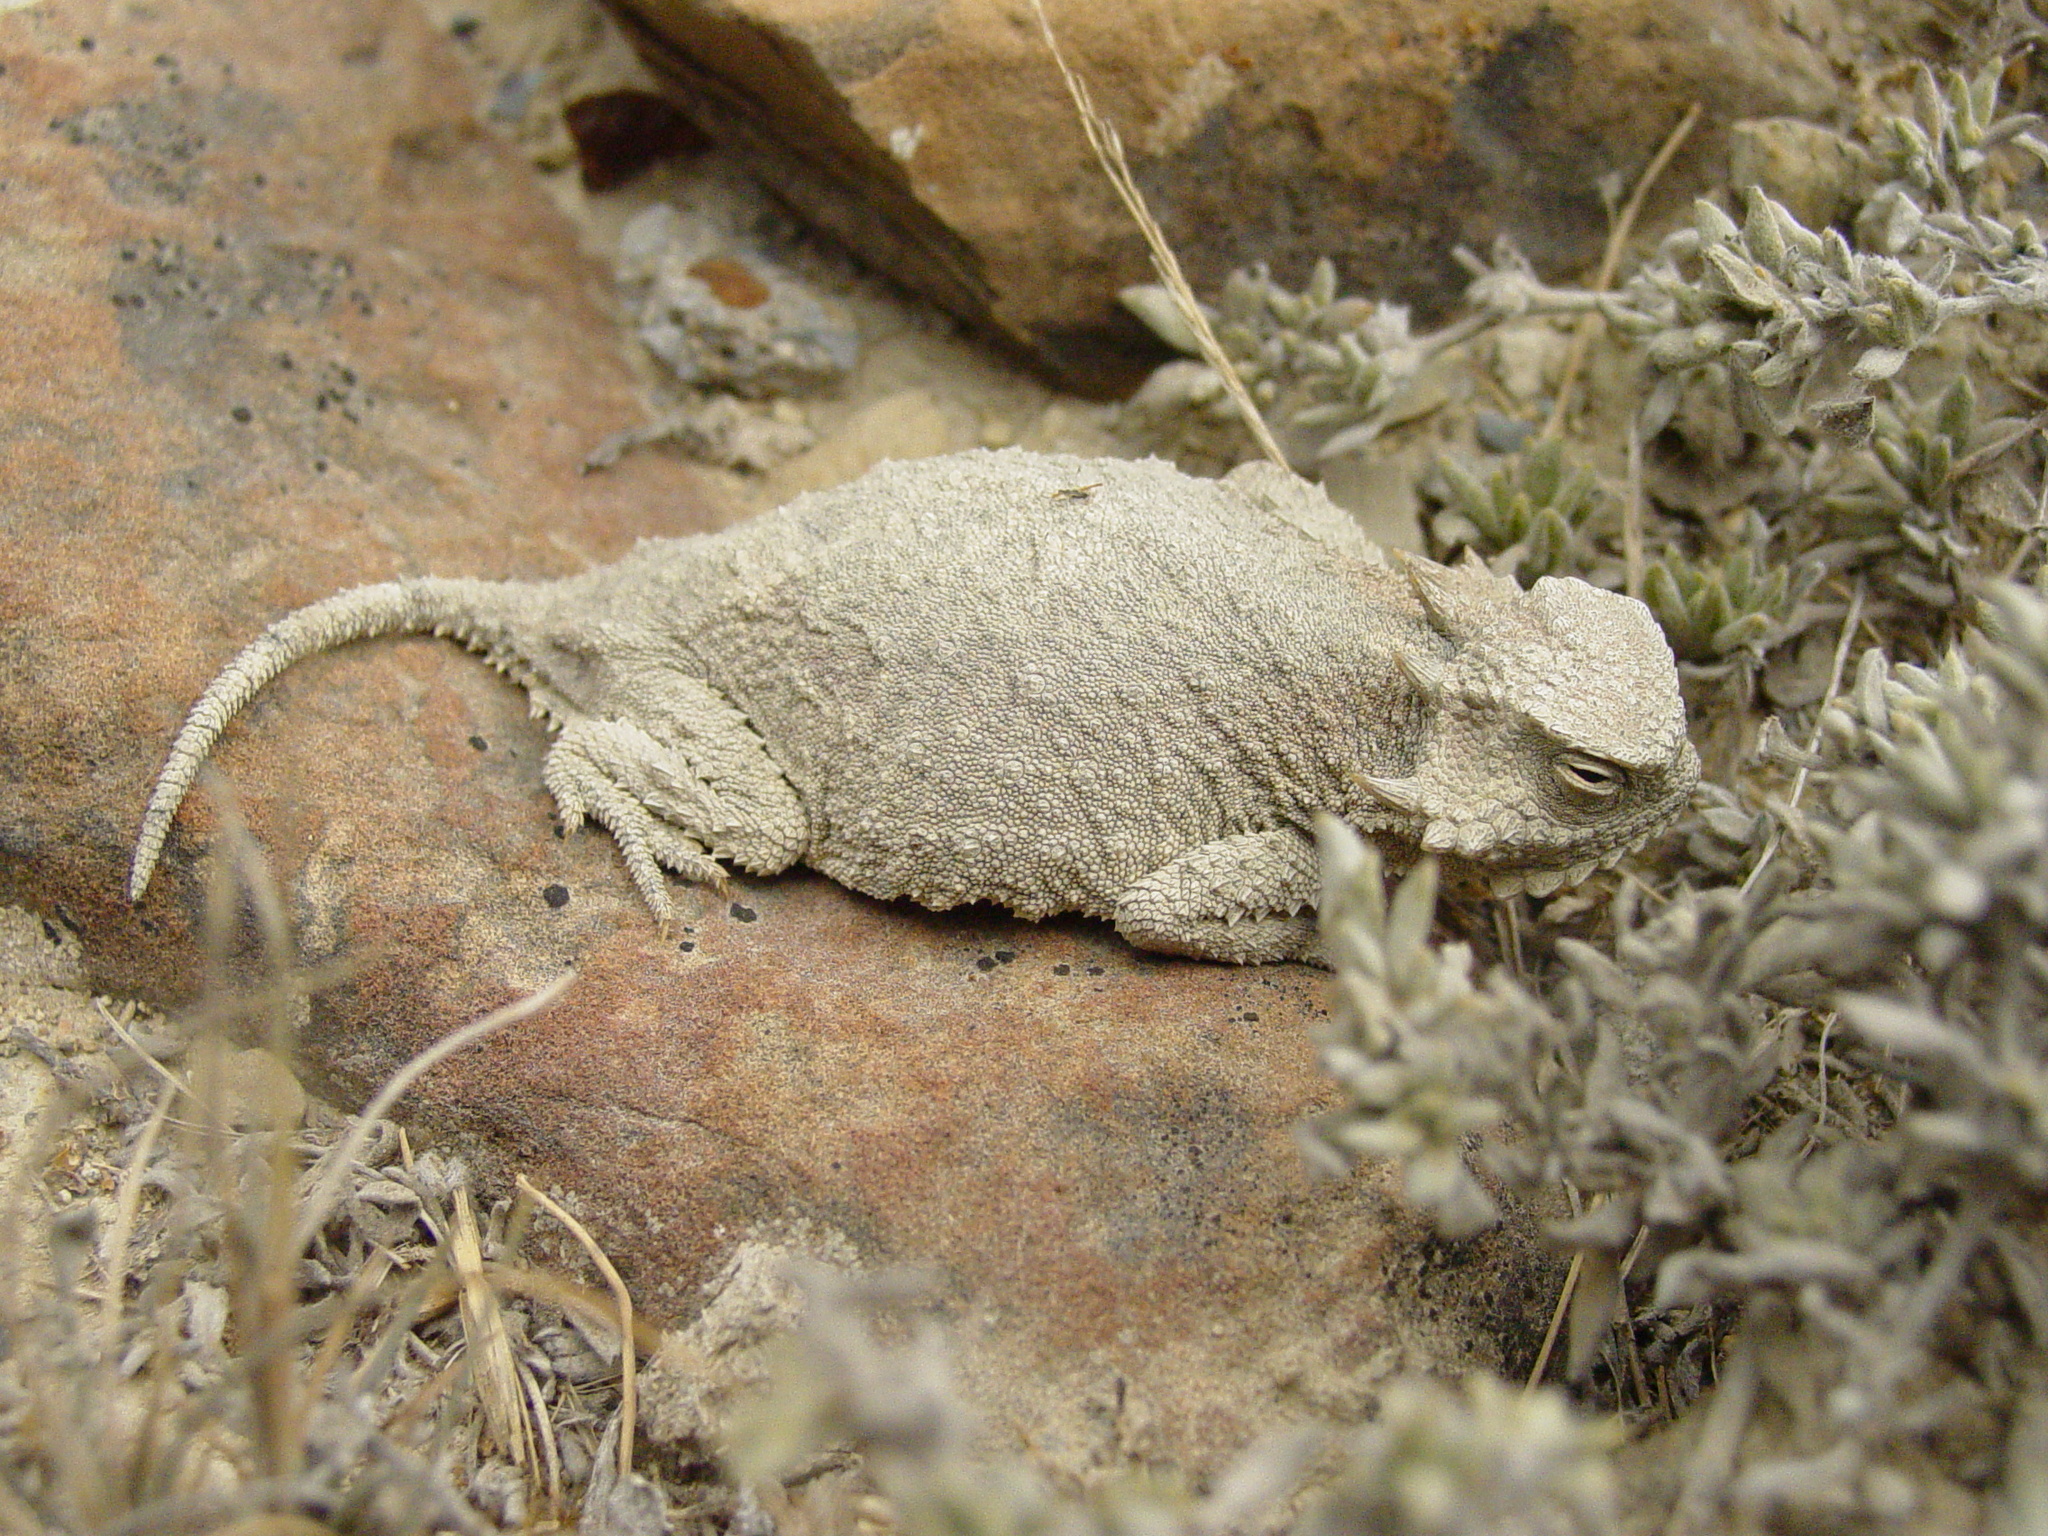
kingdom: Animalia
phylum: Chordata
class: Squamata
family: Phrynosomatidae
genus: Phrynosoma
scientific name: Phrynosoma modestum
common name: Roundtail horned lizard
